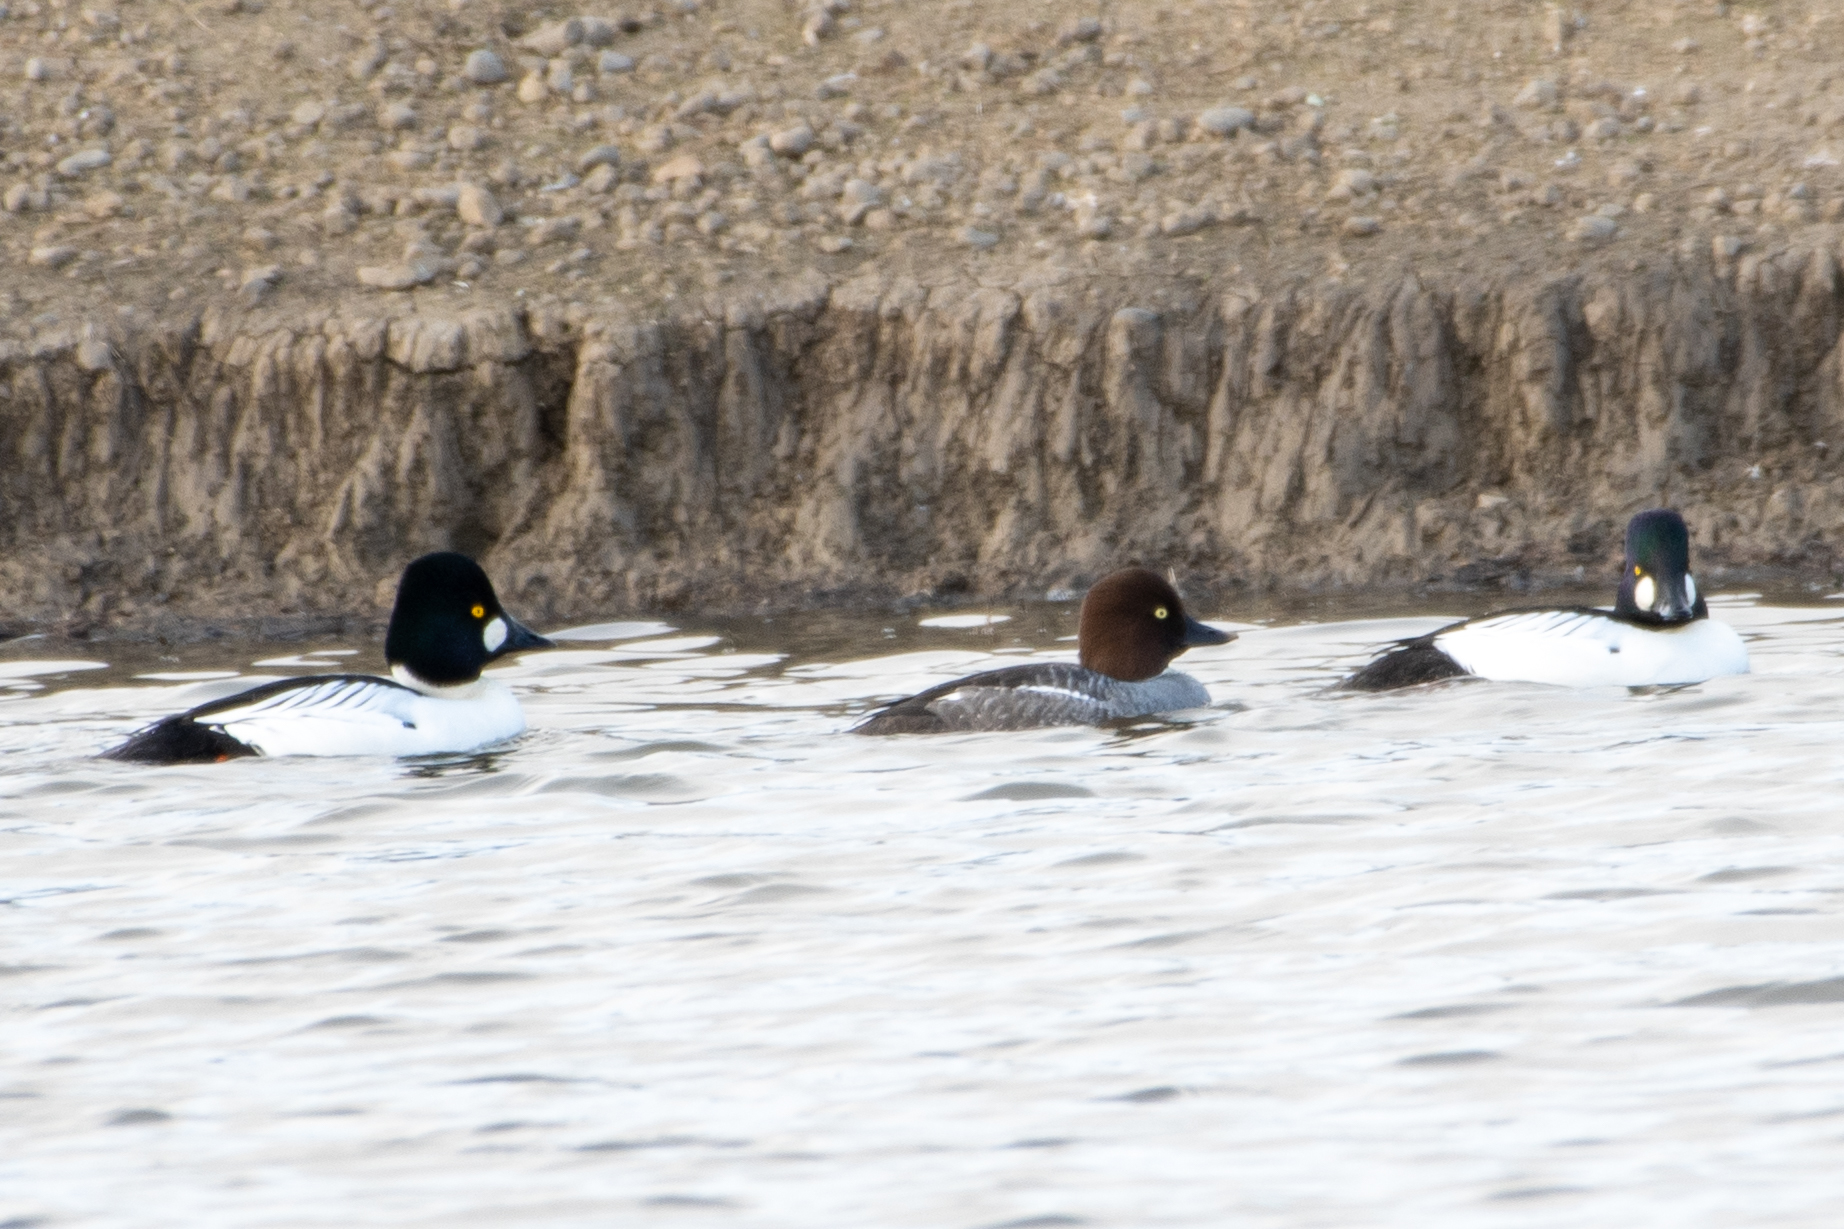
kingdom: Animalia
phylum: Chordata
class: Aves
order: Anseriformes
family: Anatidae
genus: Bucephala
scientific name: Bucephala clangula
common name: Common goldeneye
